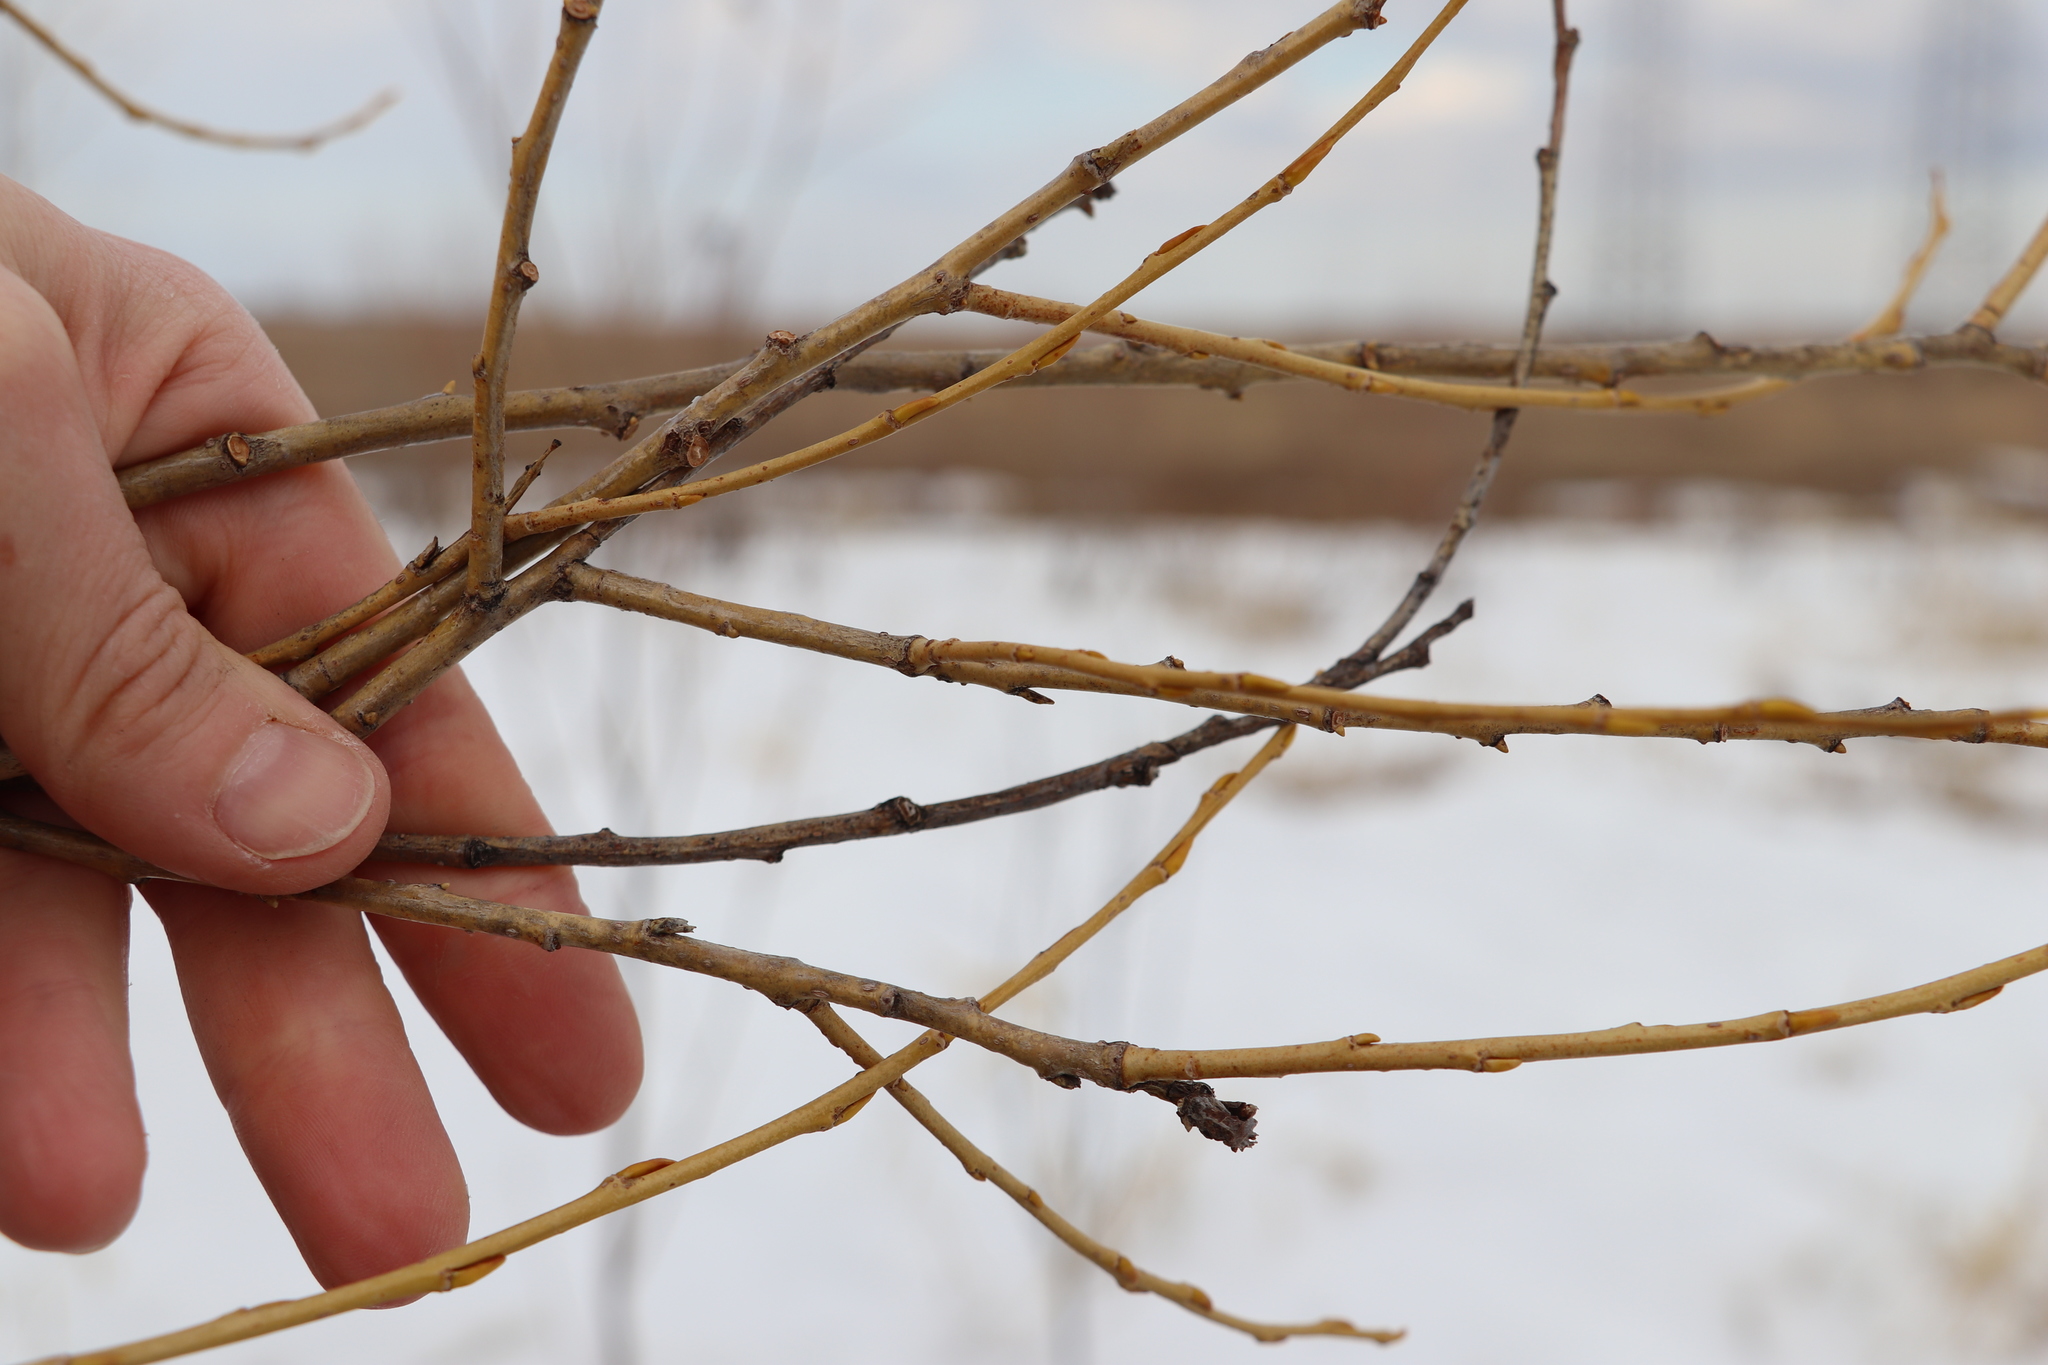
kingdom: Plantae
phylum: Tracheophyta
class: Magnoliopsida
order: Malpighiales
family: Salicaceae
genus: Salix
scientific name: Salix triandra
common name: Almond willow
